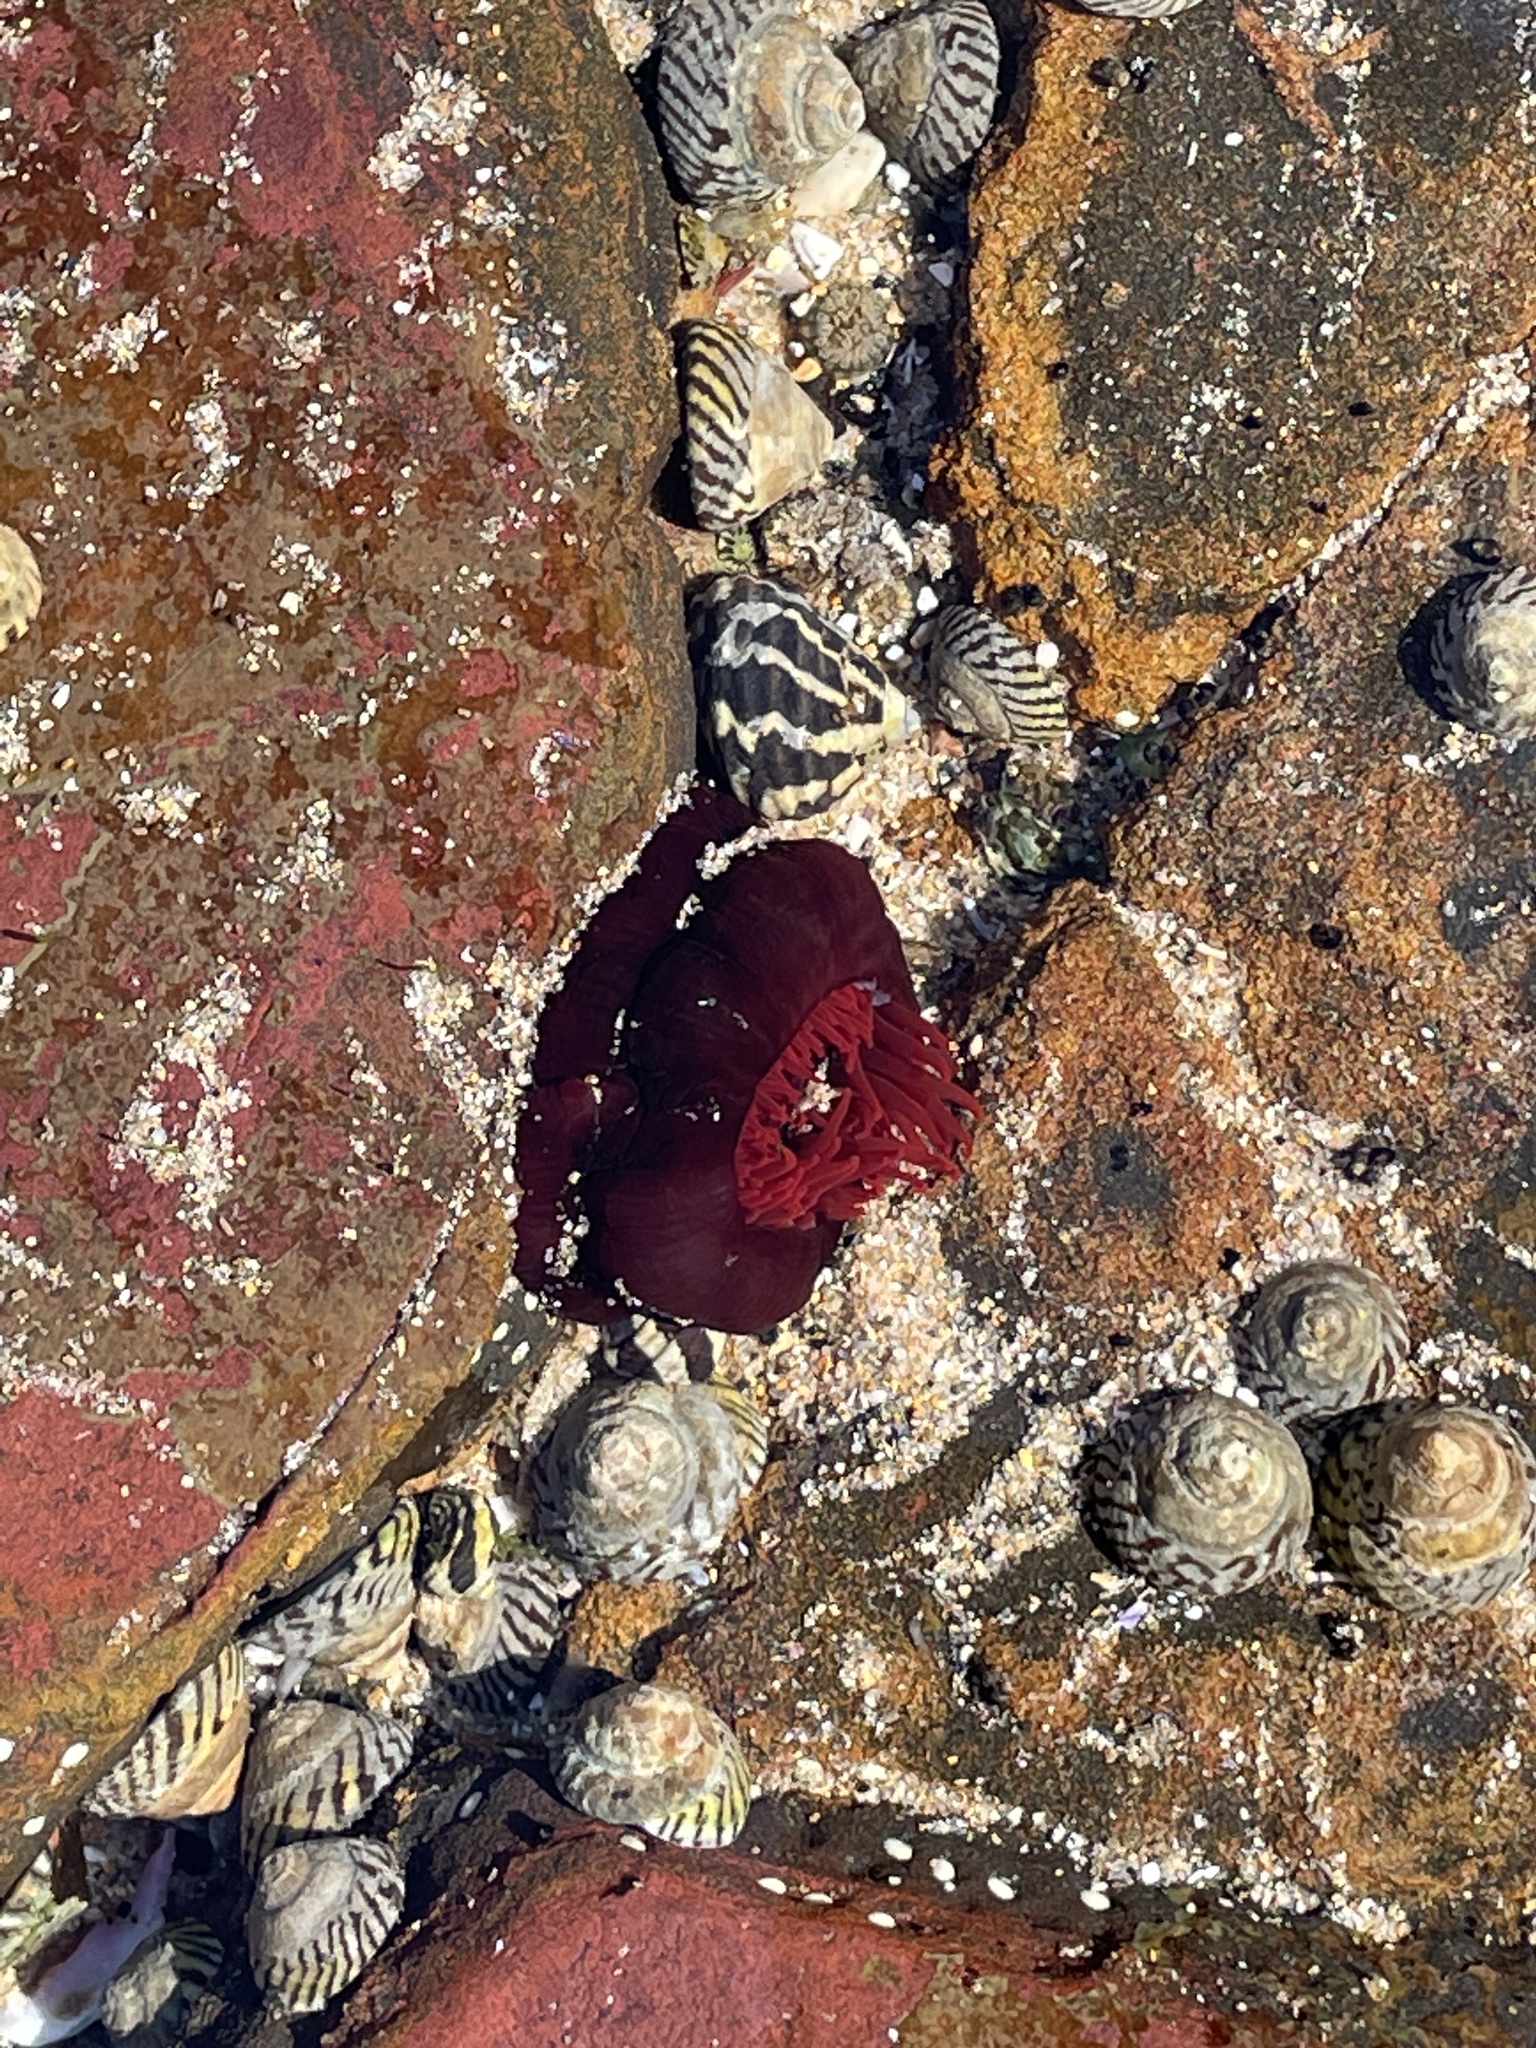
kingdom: Animalia
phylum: Cnidaria
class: Anthozoa
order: Actiniaria
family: Actiniidae
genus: Actinia
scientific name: Actinia tenebrosa
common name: Waratah anemone
